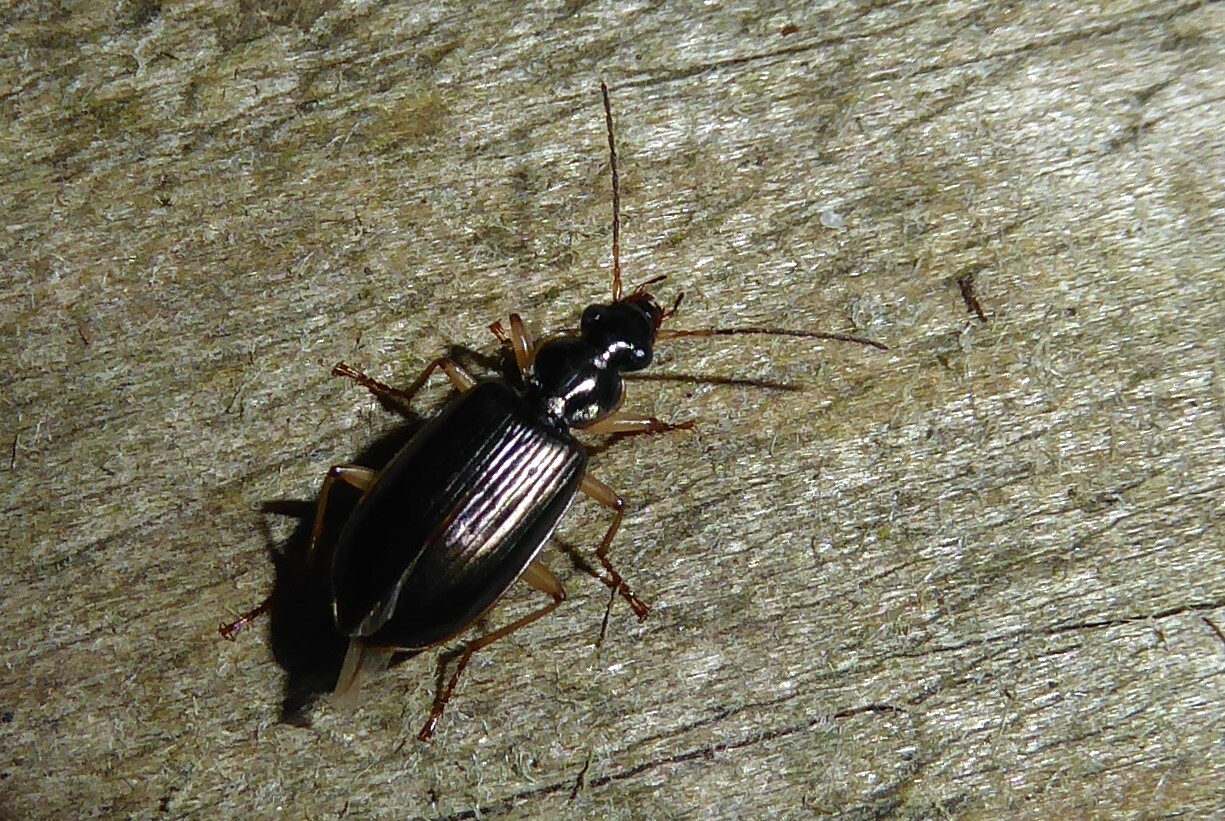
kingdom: Animalia
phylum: Arthropoda
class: Insecta
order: Coleoptera
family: Carabidae
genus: Notagonum
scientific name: Notagonum submetallicum
